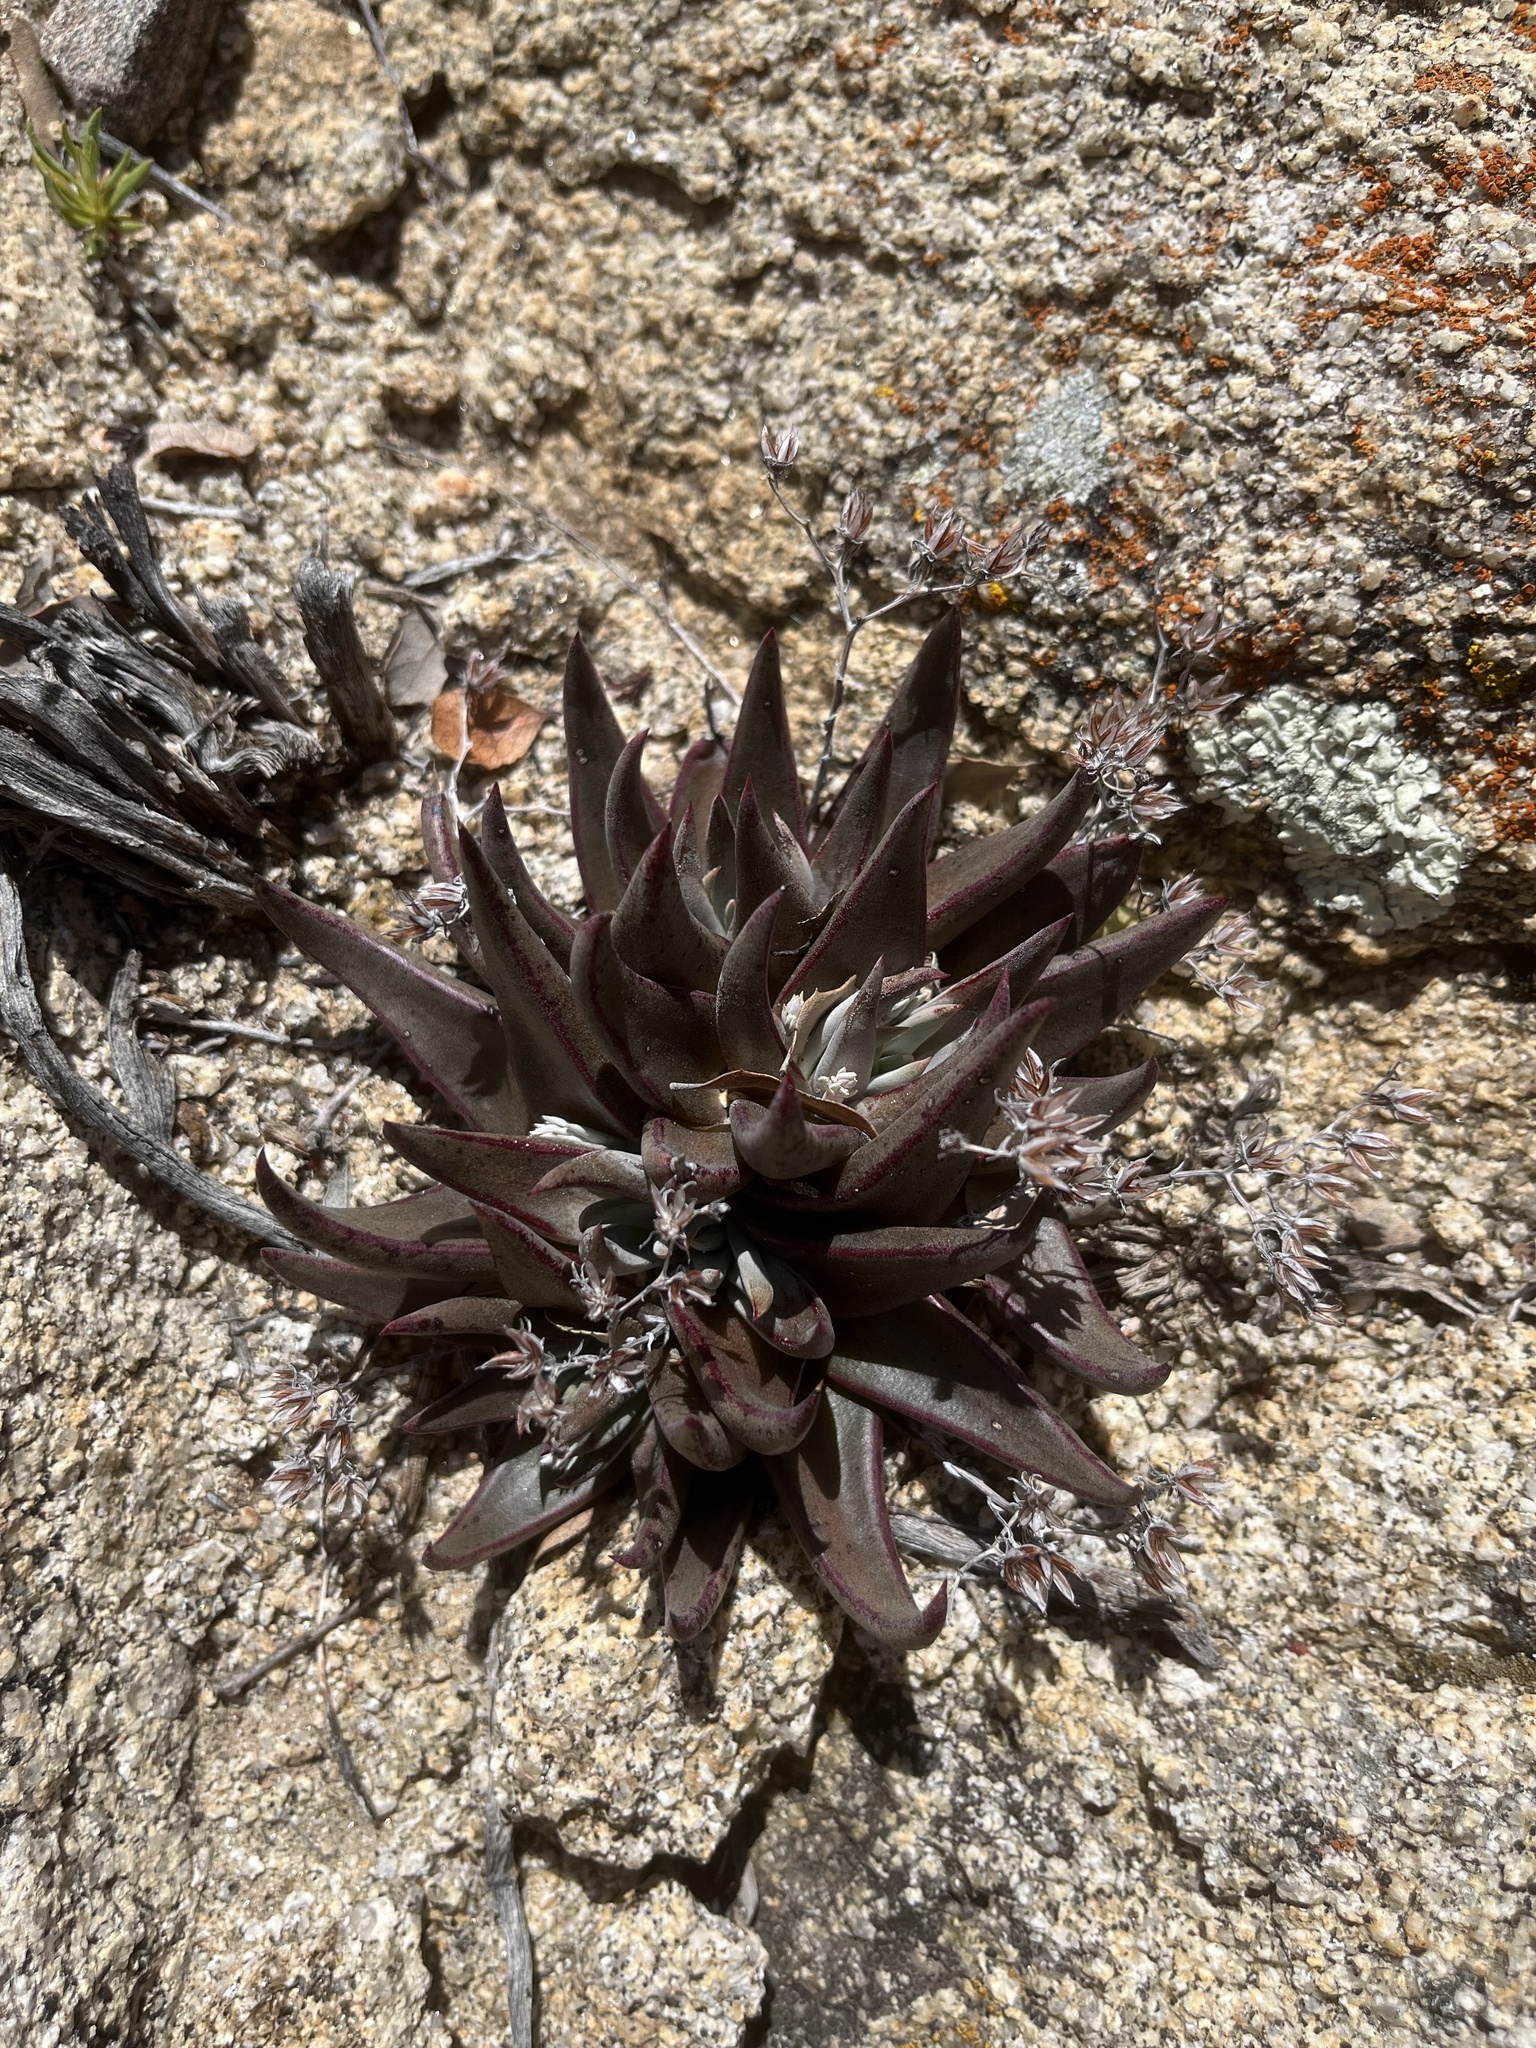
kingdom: Plantae
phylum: Tracheophyta
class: Magnoliopsida
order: Saxifragales
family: Crassulaceae
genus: Dudleya
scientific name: Dudleya abramsii
